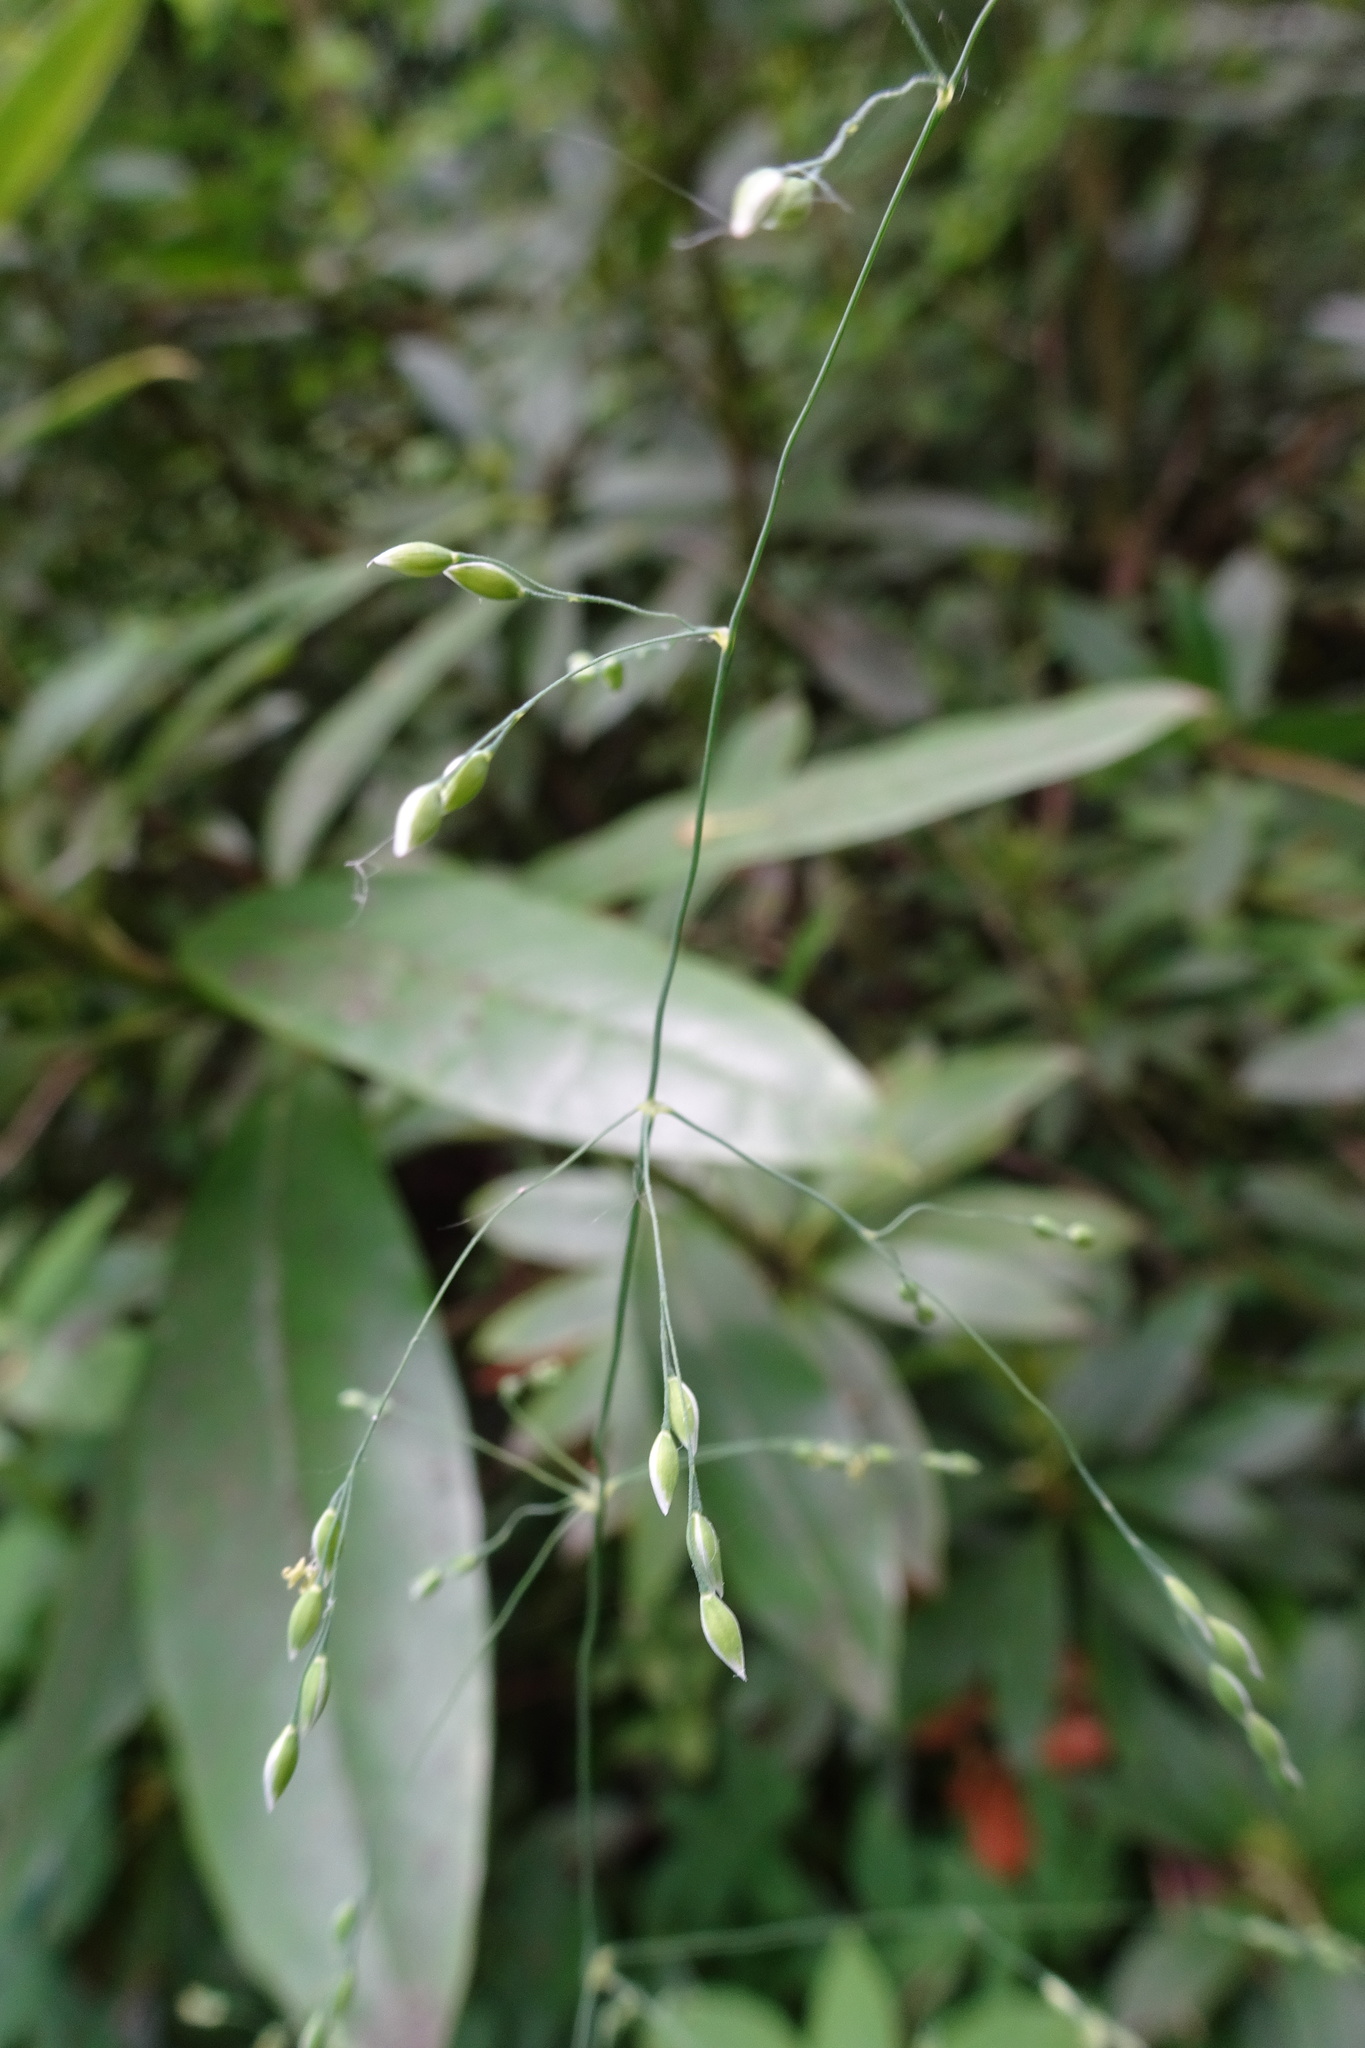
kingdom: Plantae
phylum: Tracheophyta
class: Liliopsida
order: Poales
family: Poaceae
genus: Milium
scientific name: Milium effusum
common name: Wood millet
